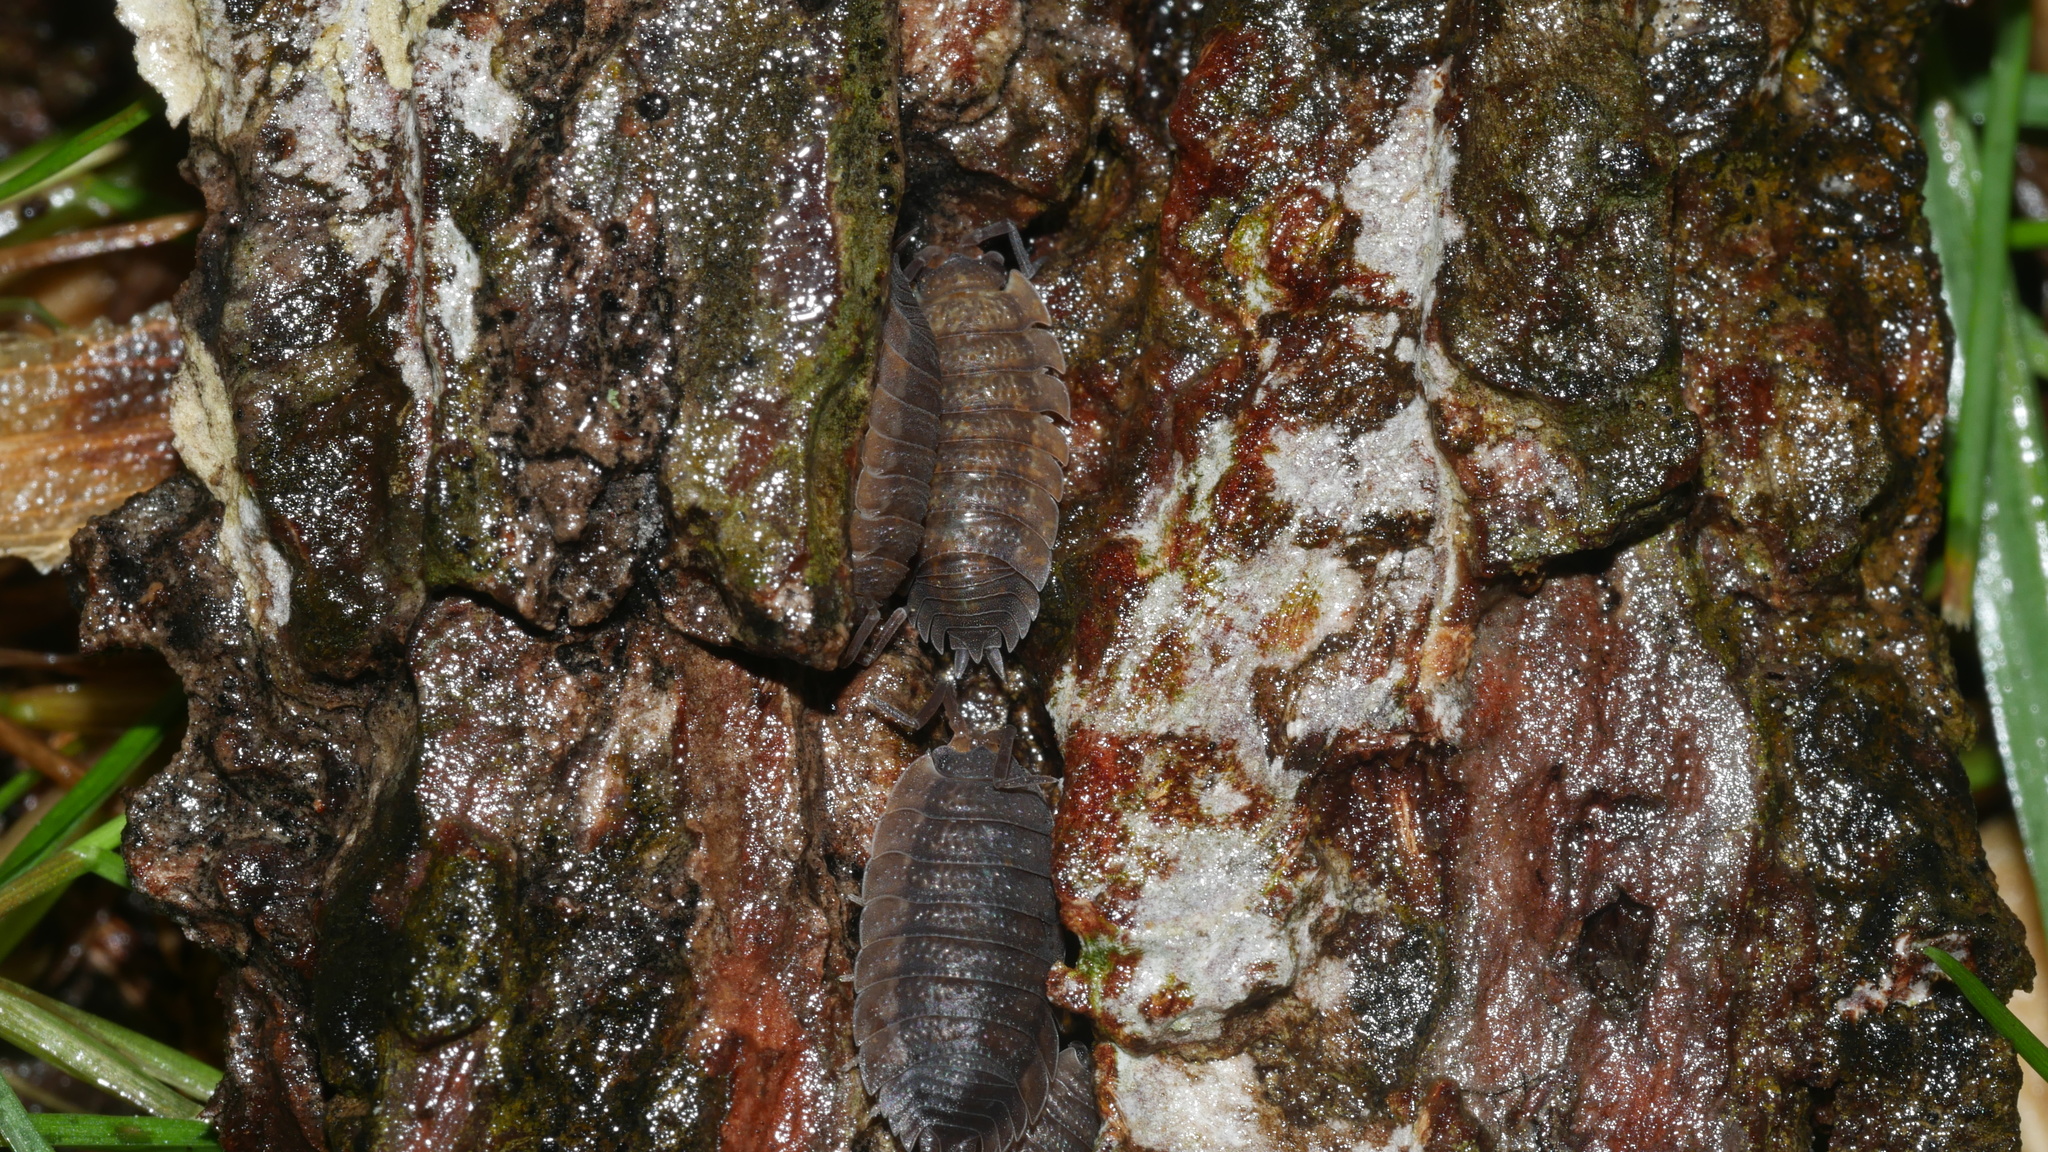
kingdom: Animalia
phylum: Arthropoda
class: Malacostraca
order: Isopoda
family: Porcellionidae
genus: Porcellio
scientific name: Porcellio scaber
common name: Common rough woodlouse
